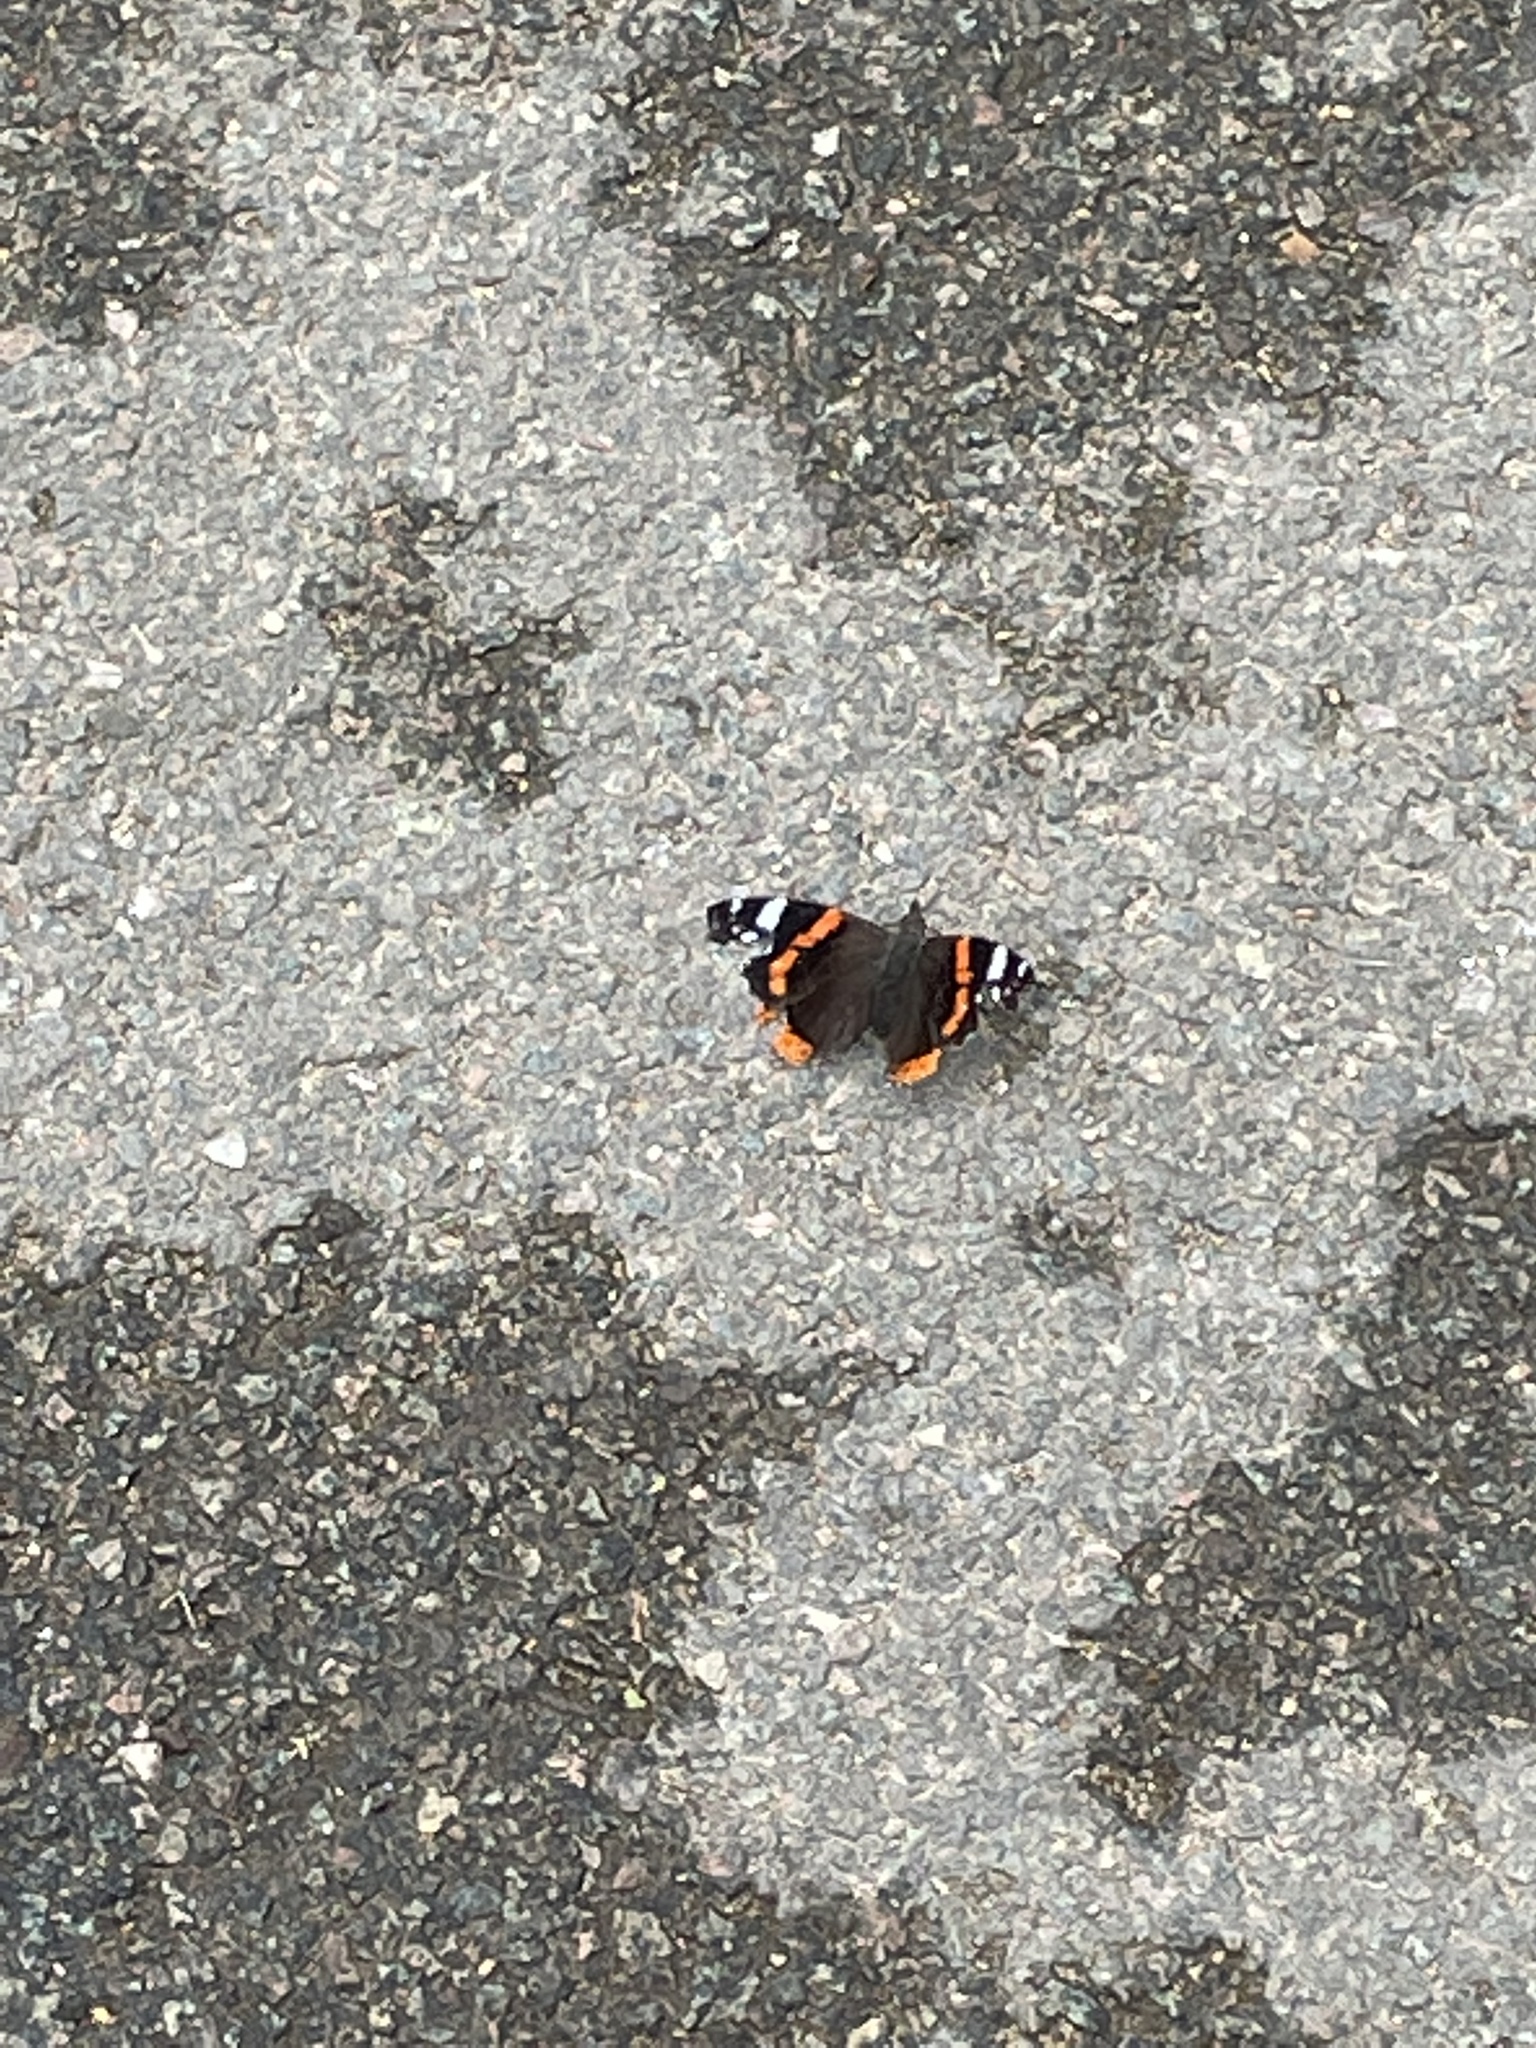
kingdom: Animalia
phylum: Arthropoda
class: Insecta
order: Lepidoptera
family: Nymphalidae
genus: Vanessa
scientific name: Vanessa atalanta
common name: Red admiral
